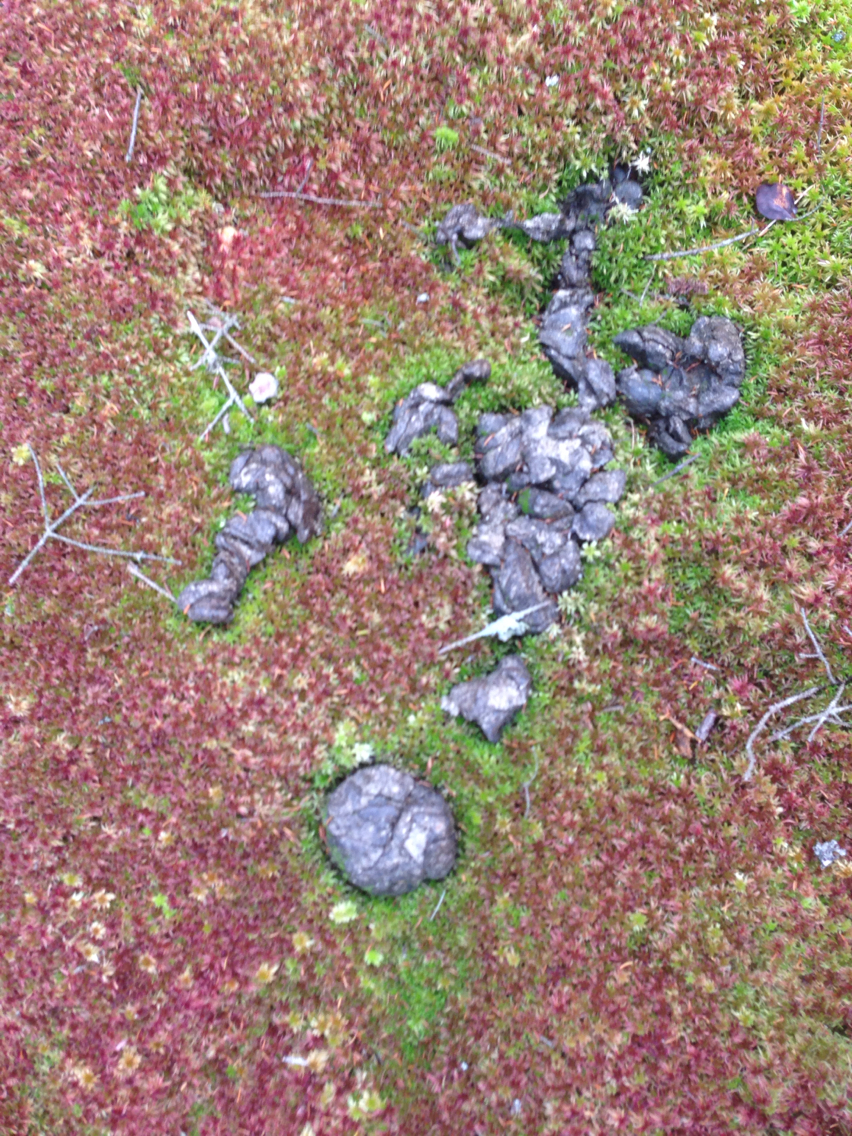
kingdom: Animalia
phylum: Chordata
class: Mammalia
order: Artiodactyla
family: Cervidae
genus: Alces
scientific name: Alces alces
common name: Moose
